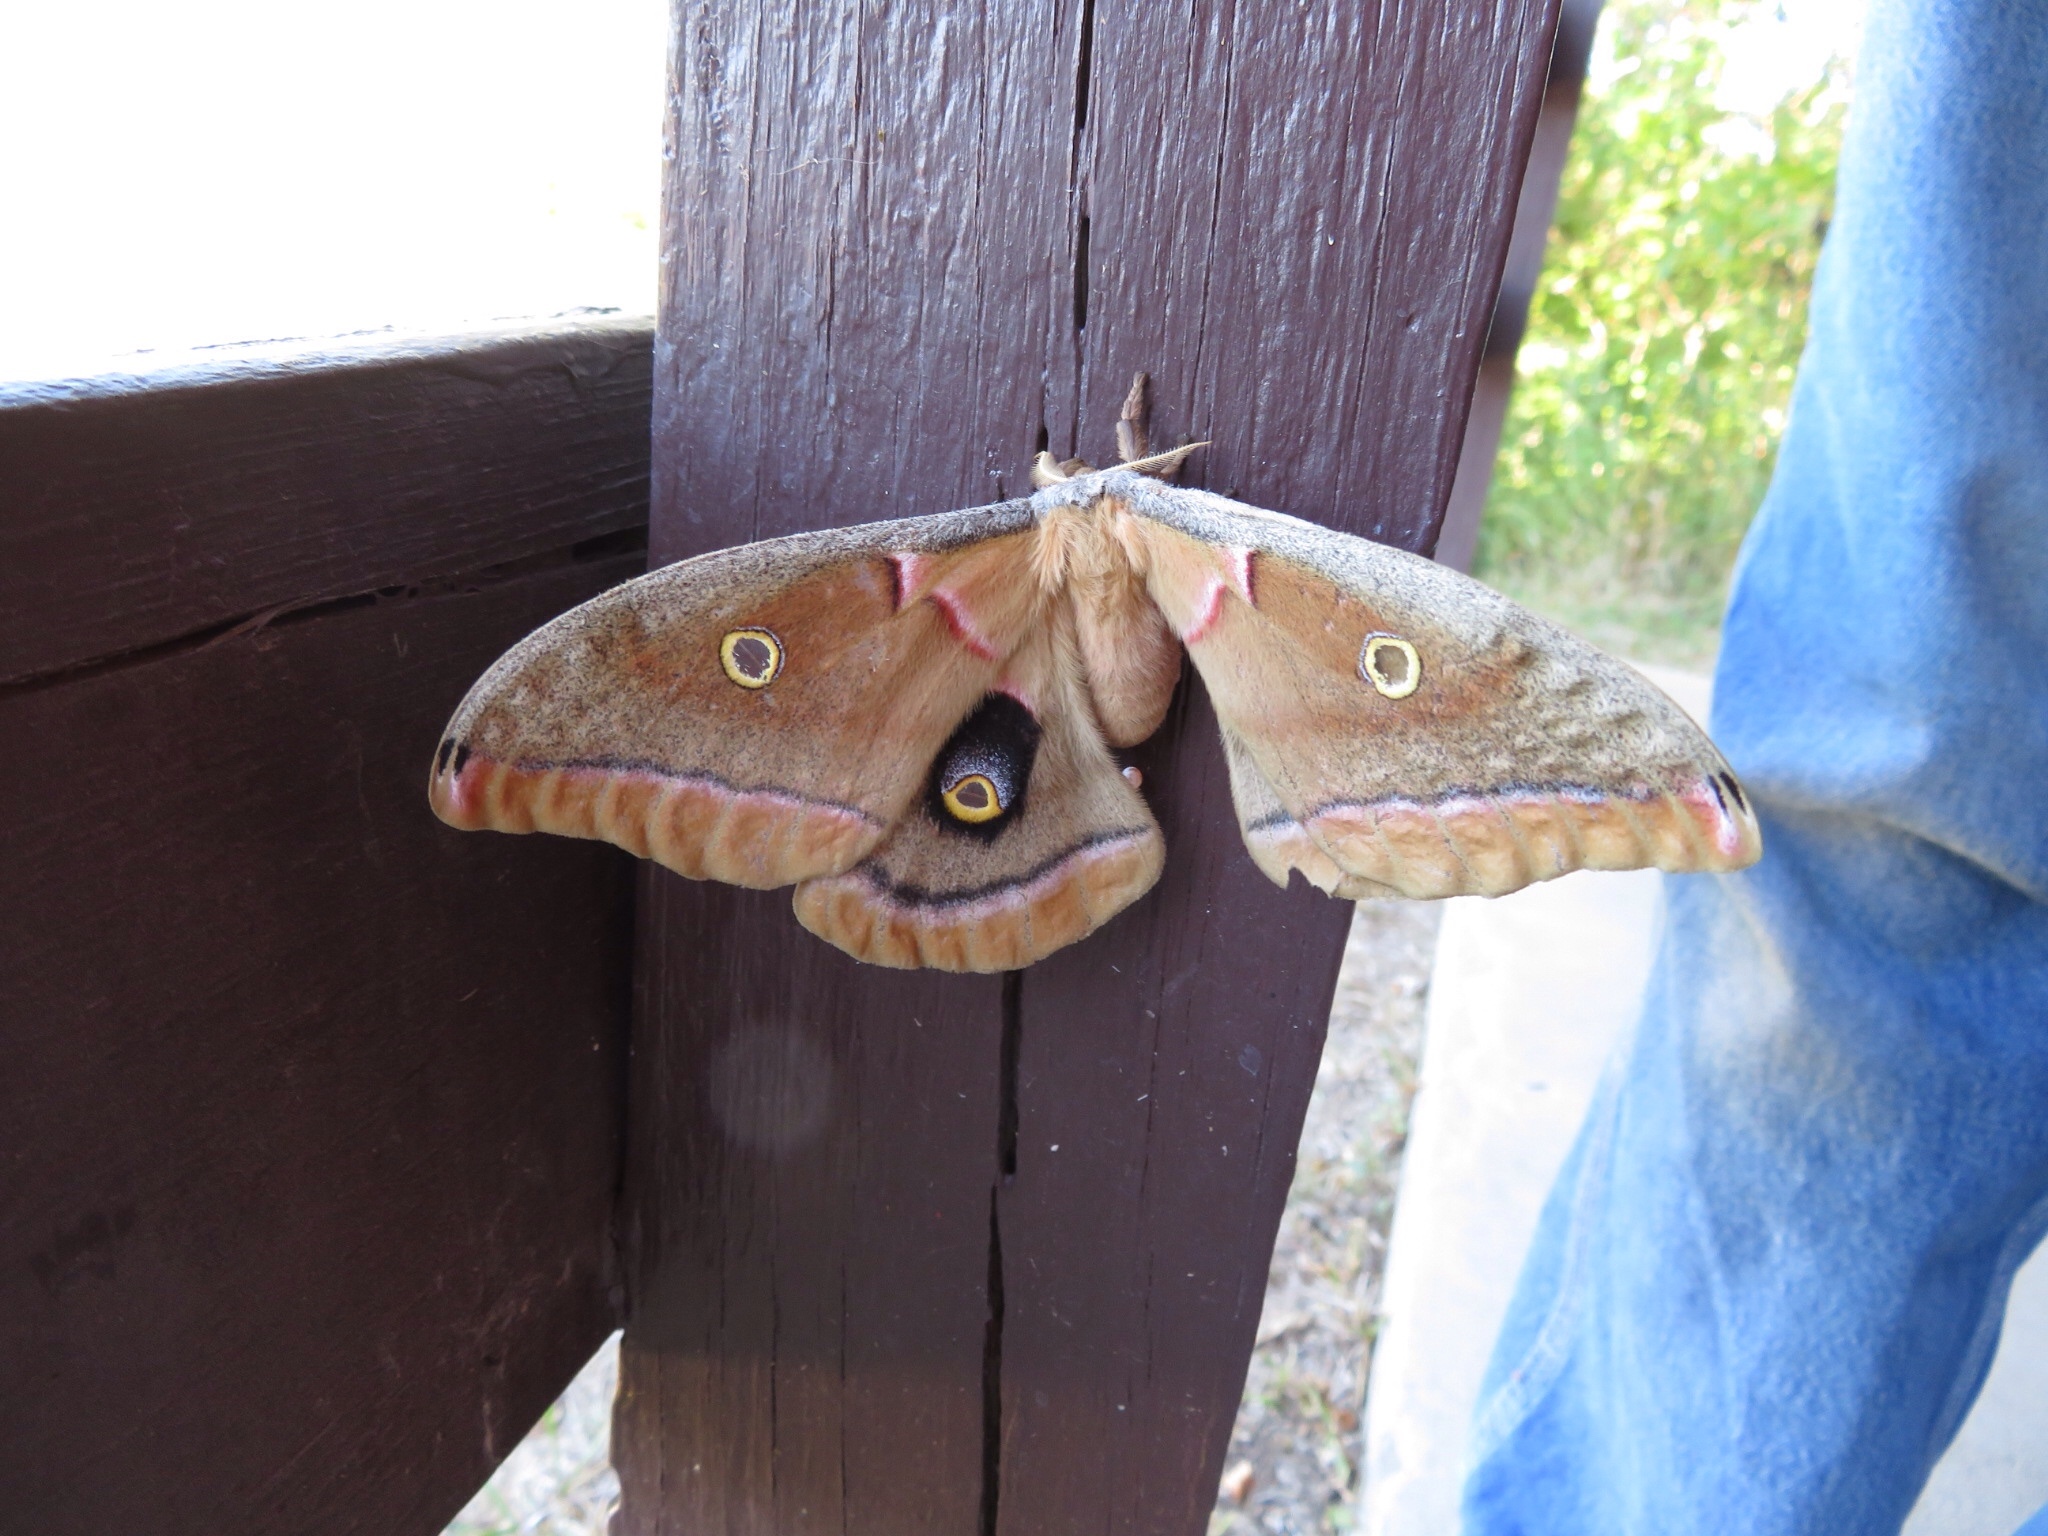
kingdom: Animalia
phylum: Arthropoda
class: Insecta
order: Lepidoptera
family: Saturniidae
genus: Antheraea
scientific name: Antheraea polyphemus
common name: Polyphemus moth
